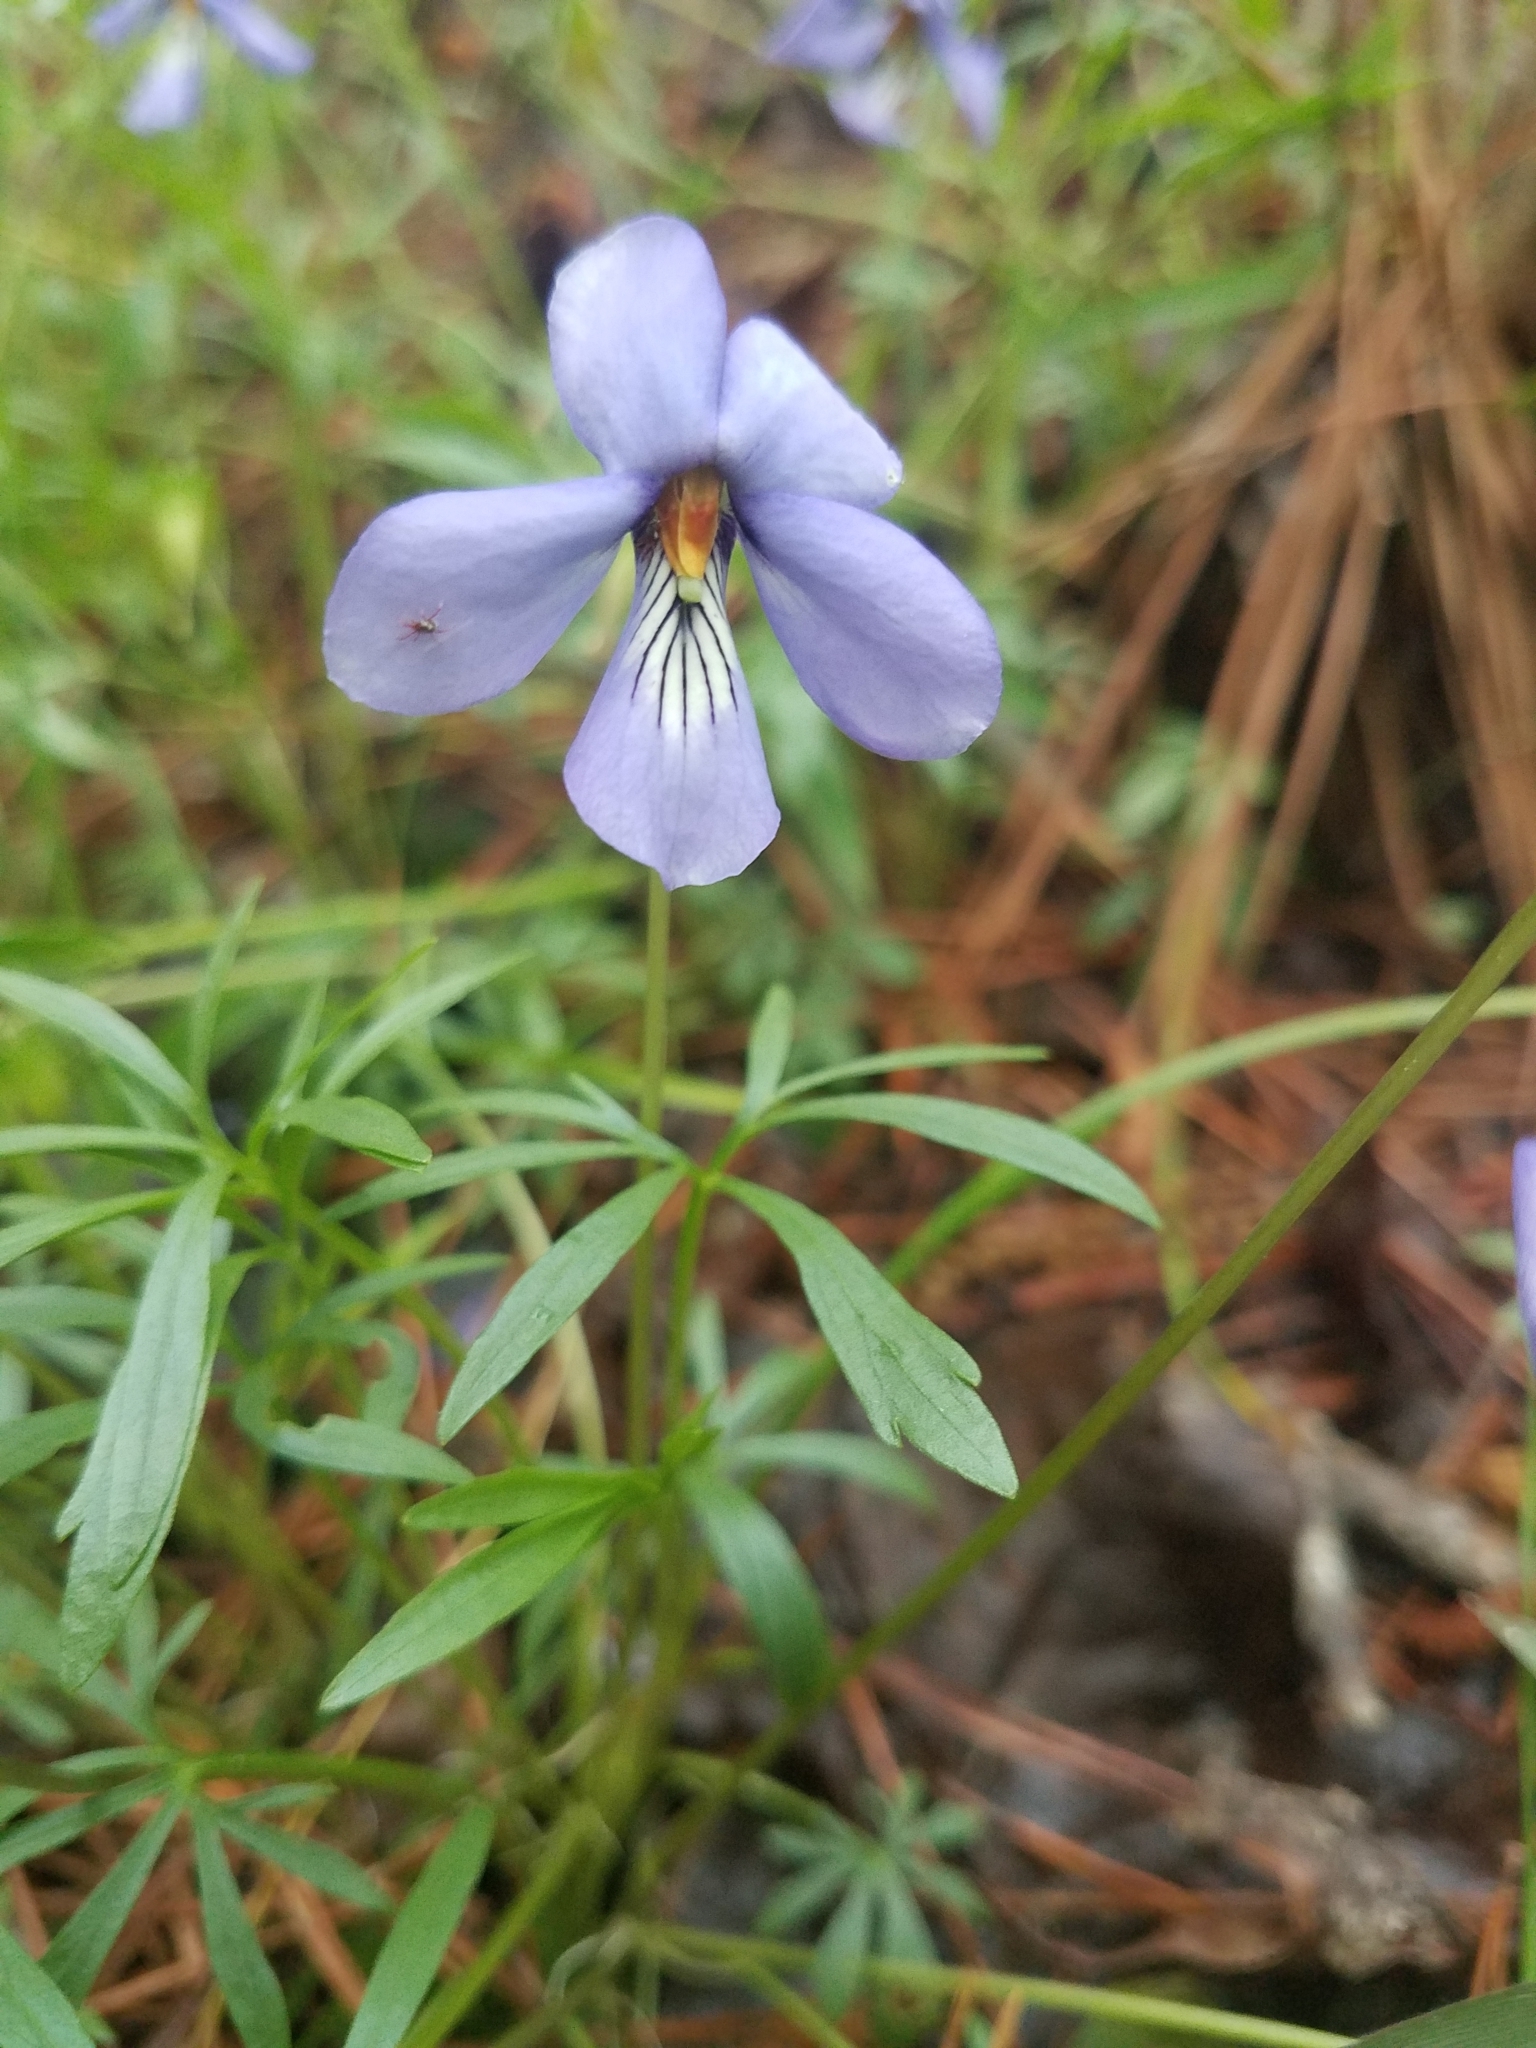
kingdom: Plantae
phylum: Tracheophyta
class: Magnoliopsida
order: Malpighiales
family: Violaceae
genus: Viola
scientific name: Viola pedata
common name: Pansy violet
